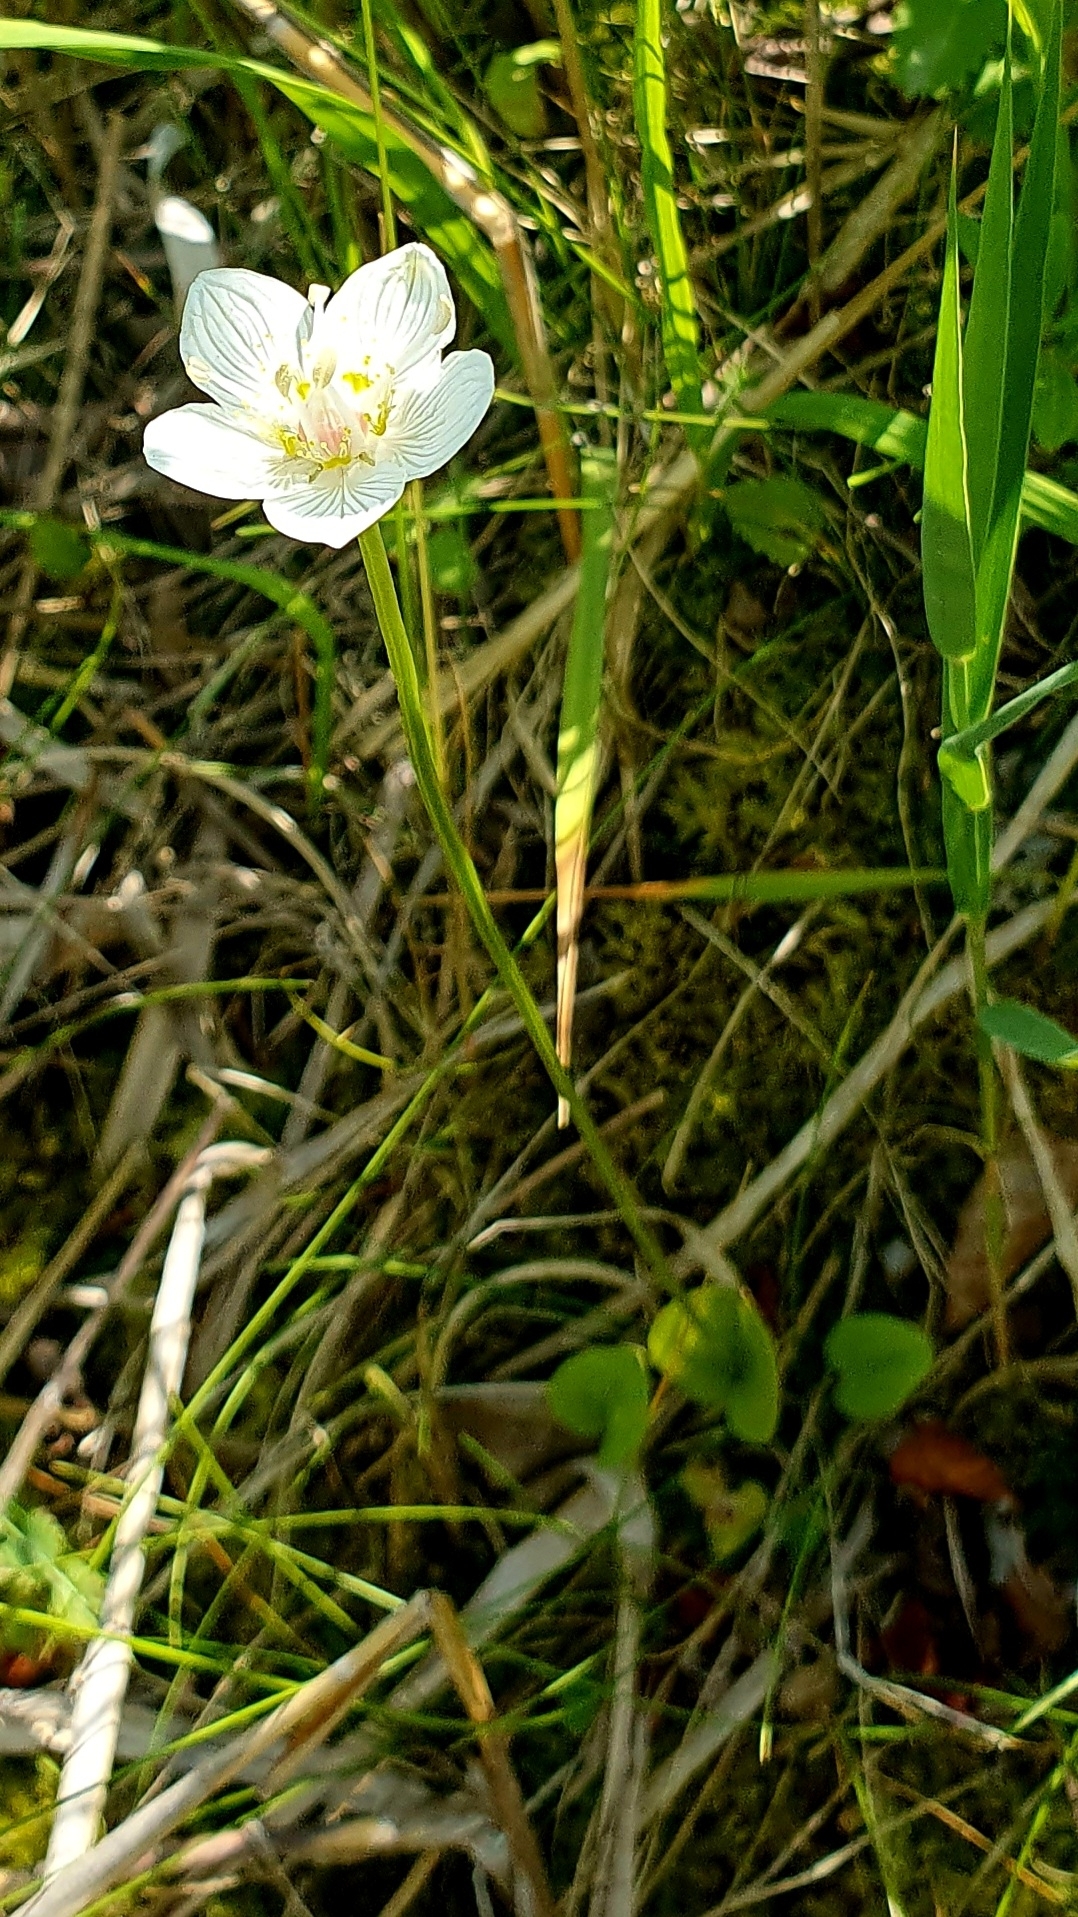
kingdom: Plantae
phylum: Tracheophyta
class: Magnoliopsida
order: Celastrales
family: Parnassiaceae
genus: Parnassia
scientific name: Parnassia palustris
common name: Grass-of-parnassus
